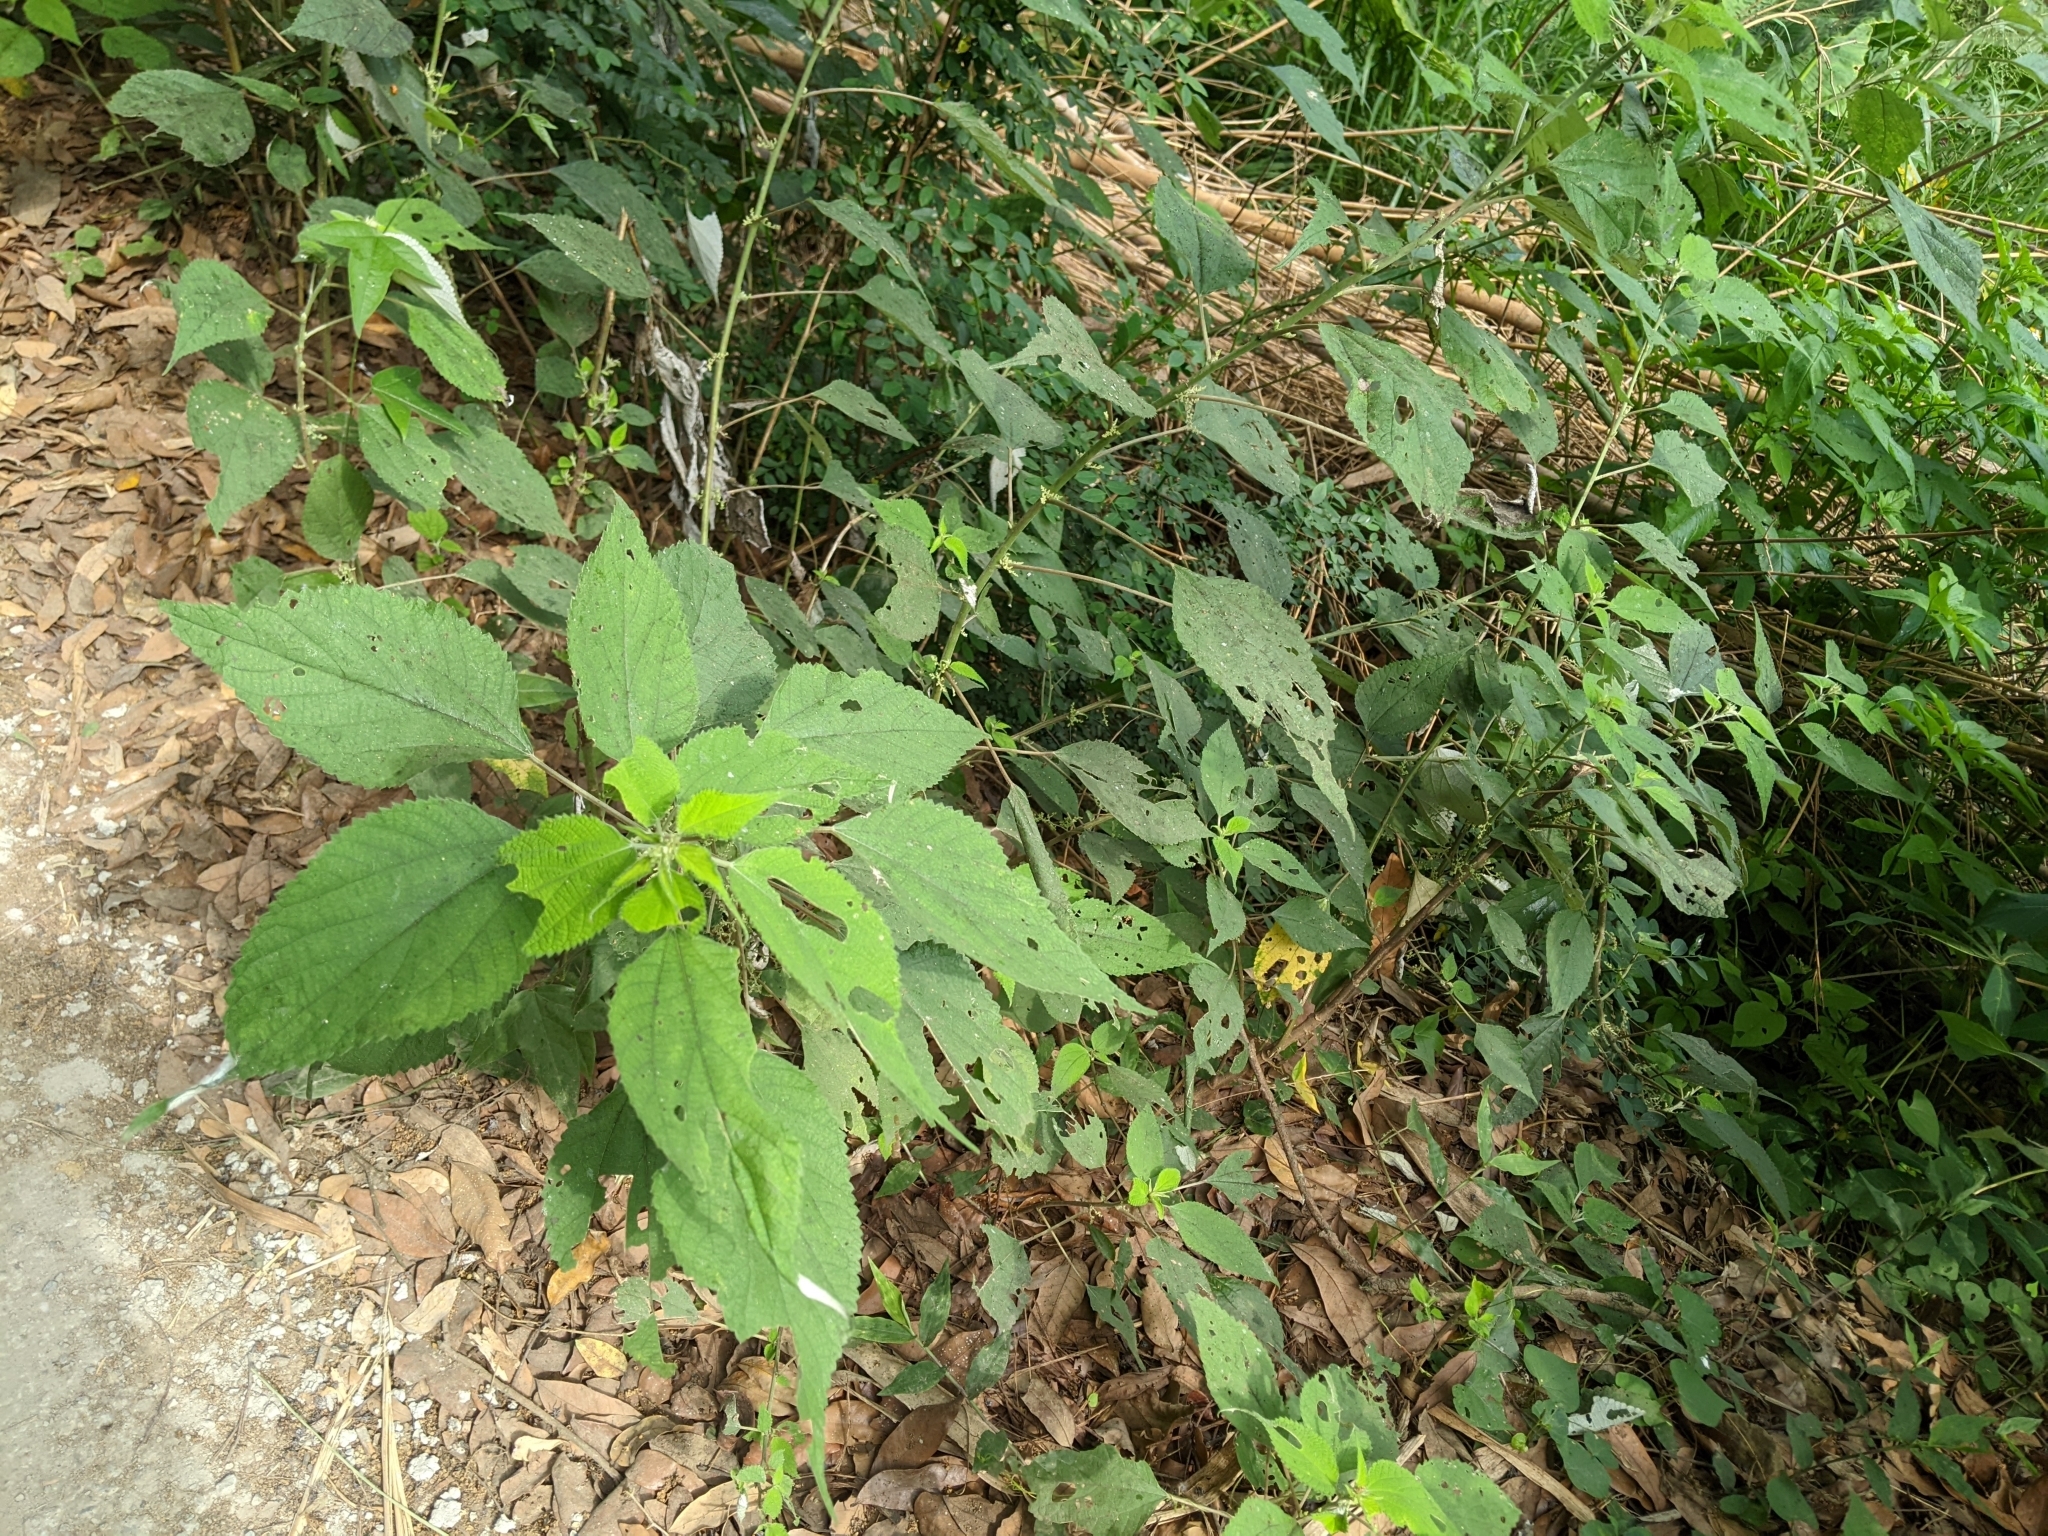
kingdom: Plantae
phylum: Tracheophyta
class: Magnoliopsida
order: Rosales
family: Urticaceae
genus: Boehmeria
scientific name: Boehmeria nivea
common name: Ramie chinese grass
